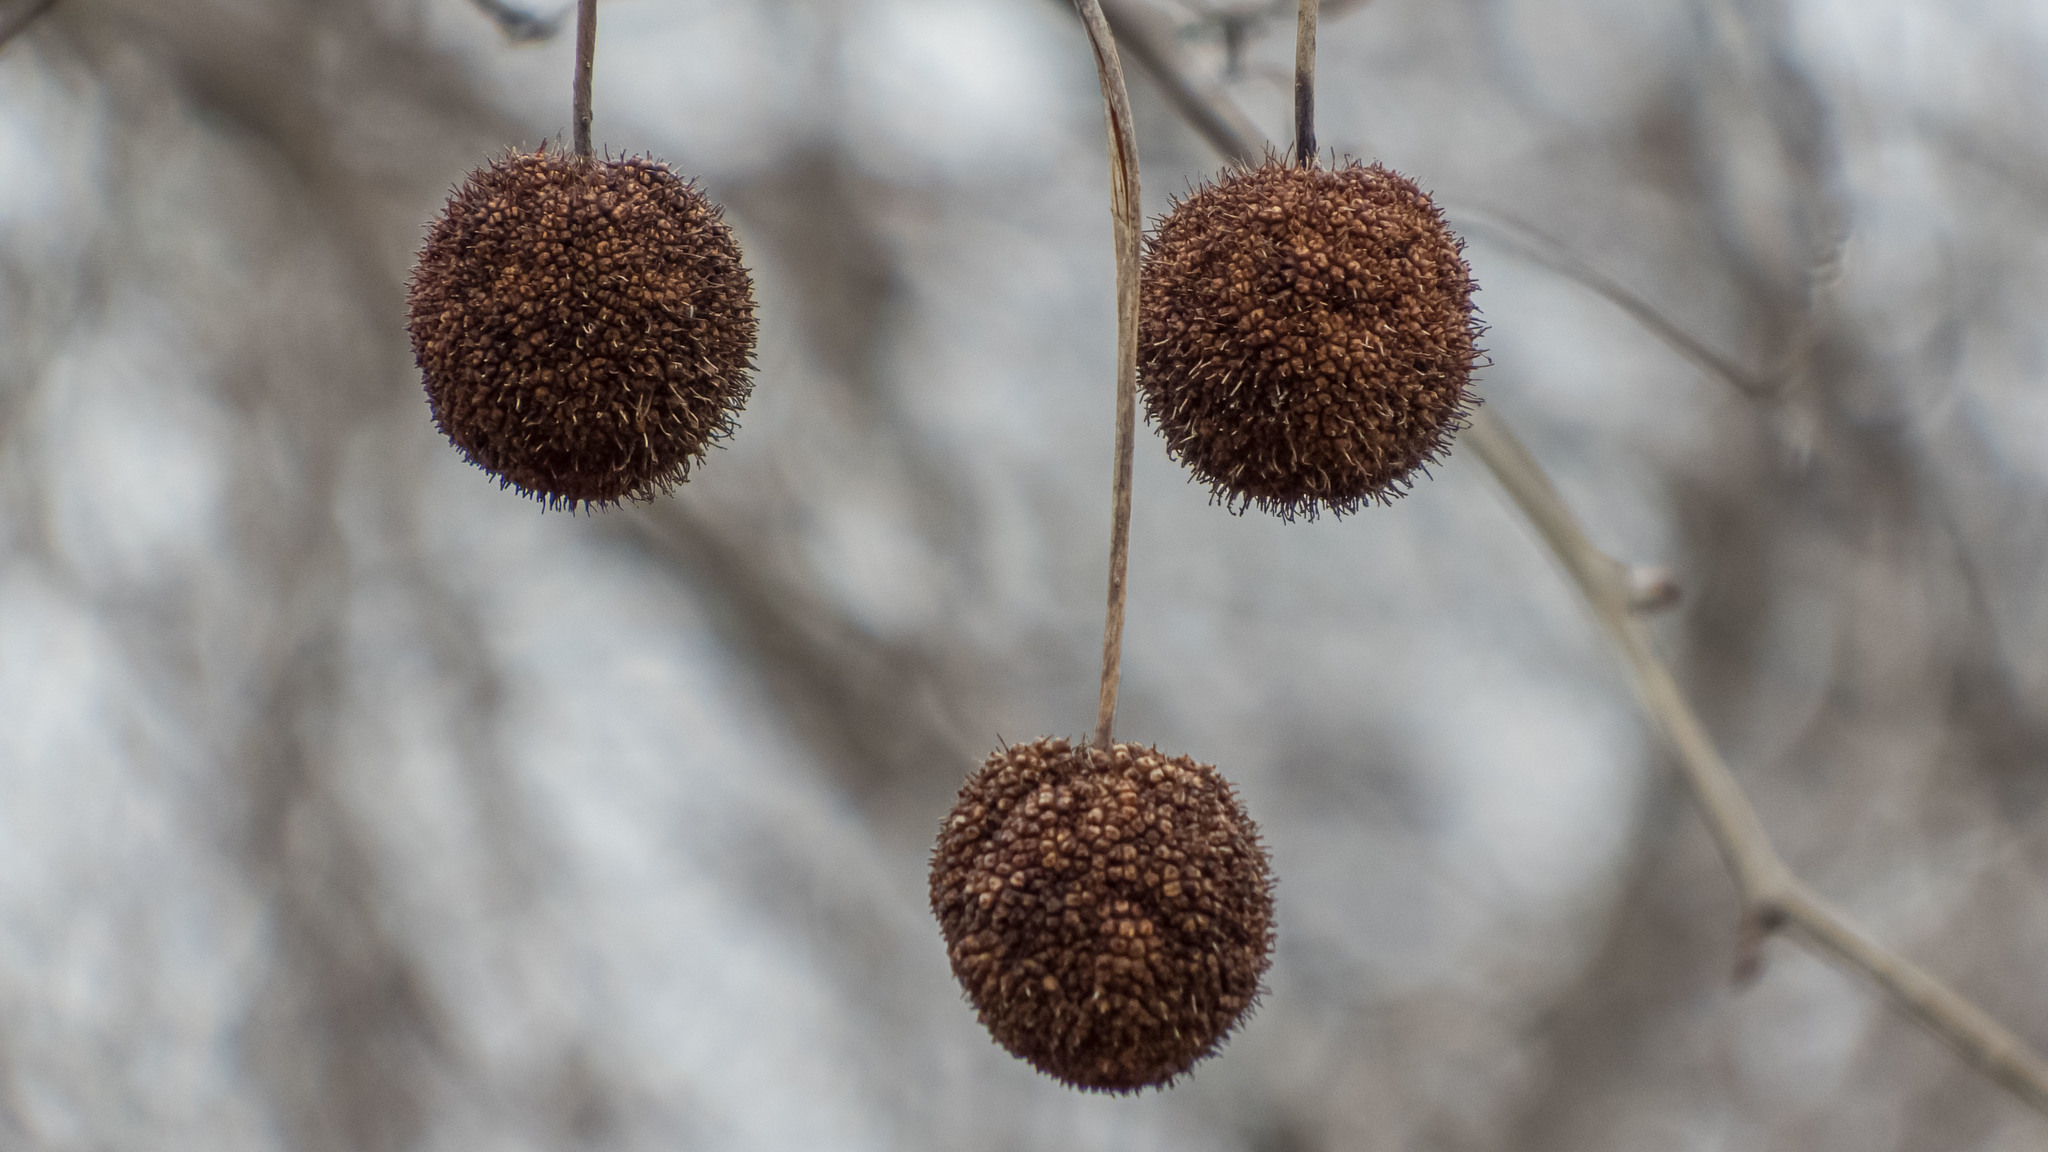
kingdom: Plantae
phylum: Tracheophyta
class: Magnoliopsida
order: Proteales
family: Platanaceae
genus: Platanus
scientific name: Platanus occidentalis
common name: American sycamore
